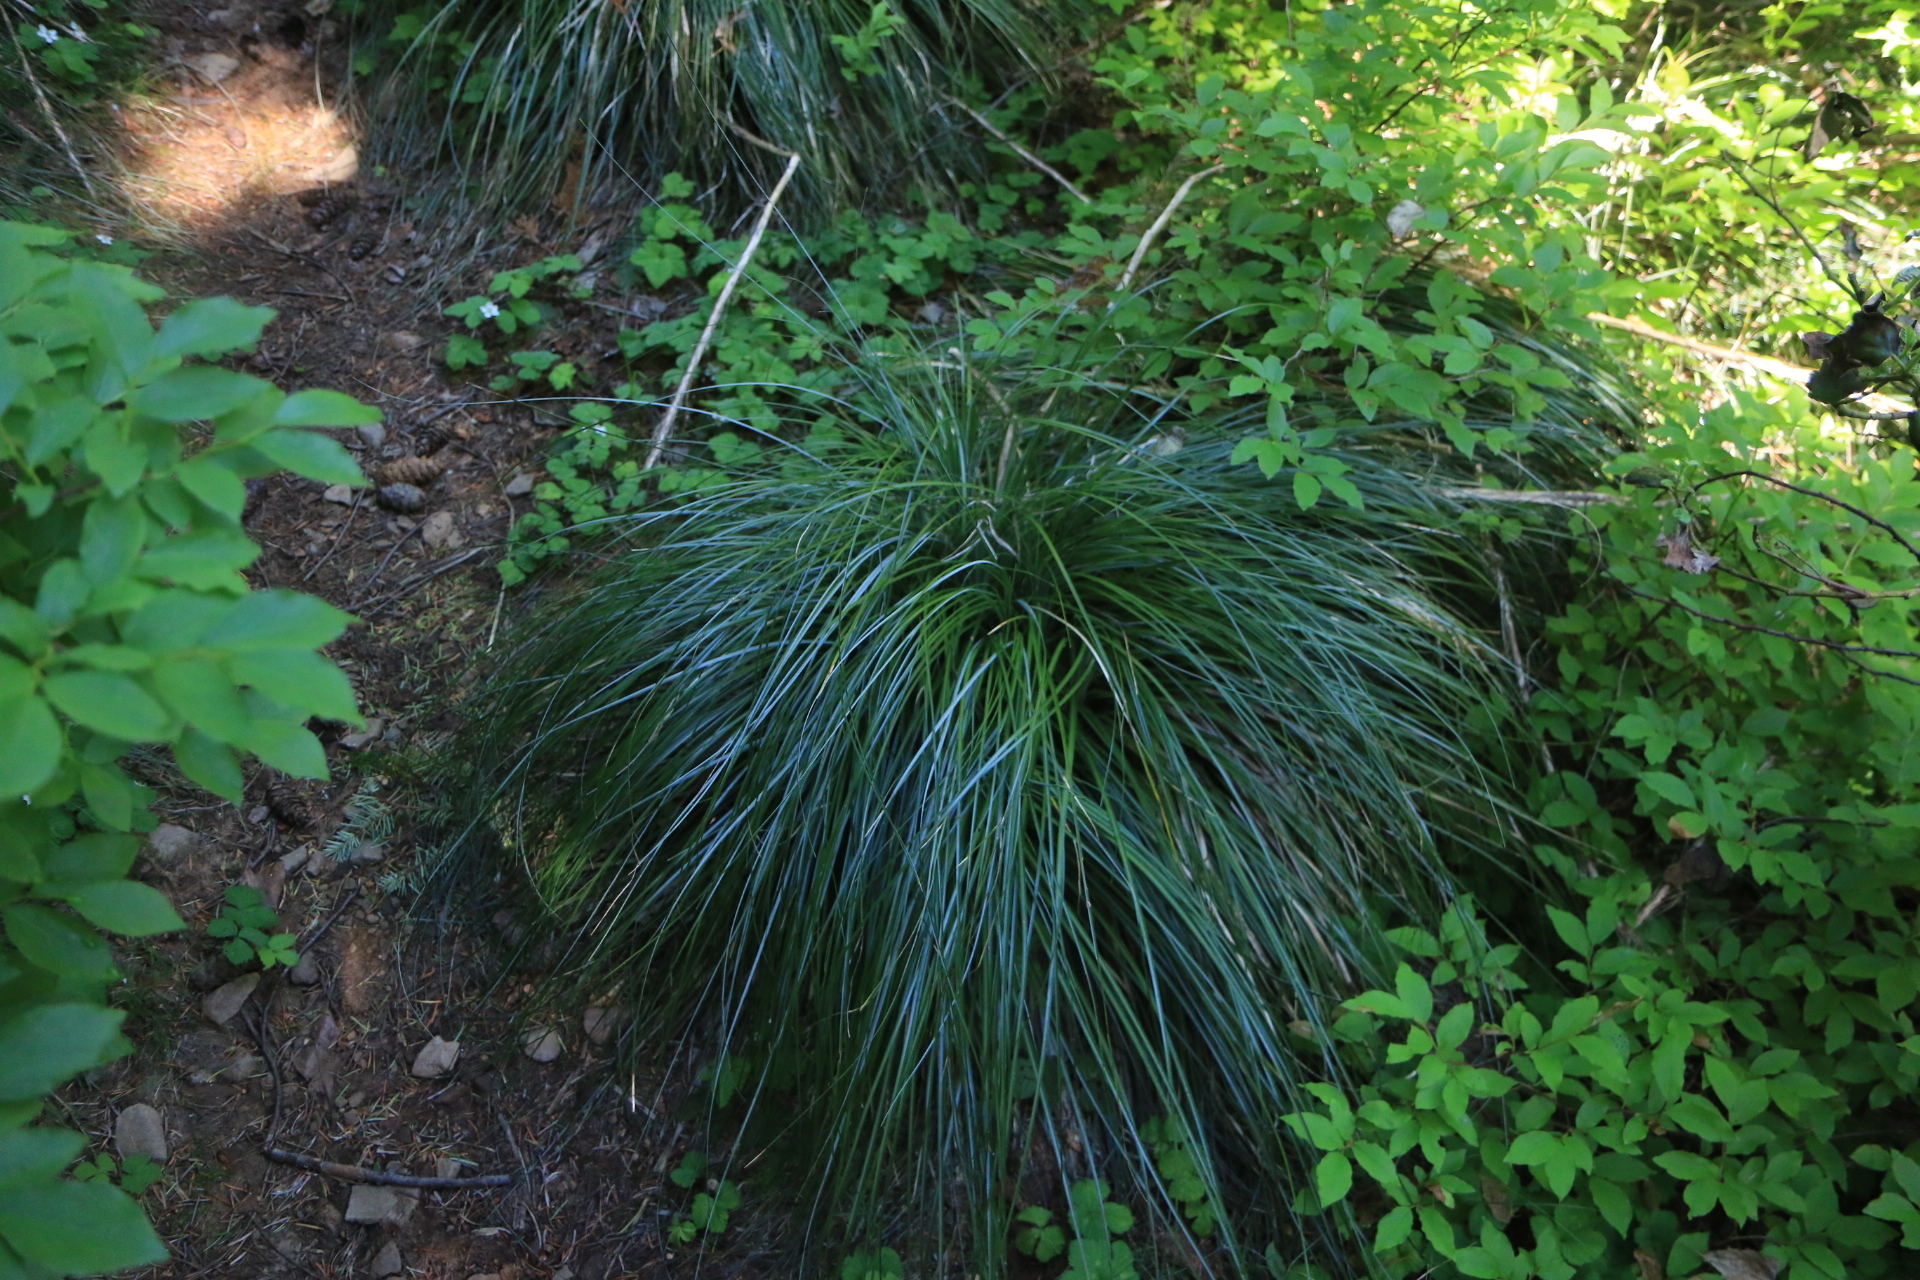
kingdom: Plantae
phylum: Tracheophyta
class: Liliopsida
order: Liliales
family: Melanthiaceae
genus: Xerophyllum
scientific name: Xerophyllum tenax
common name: Bear-grass
